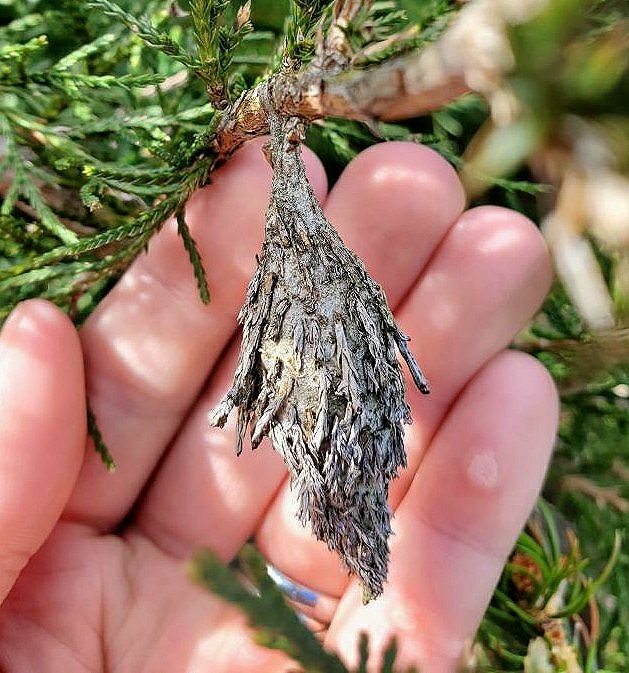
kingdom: Animalia
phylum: Arthropoda
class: Insecta
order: Lepidoptera
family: Psychidae
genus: Thyridopteryx
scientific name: Thyridopteryx ephemeraeformis
